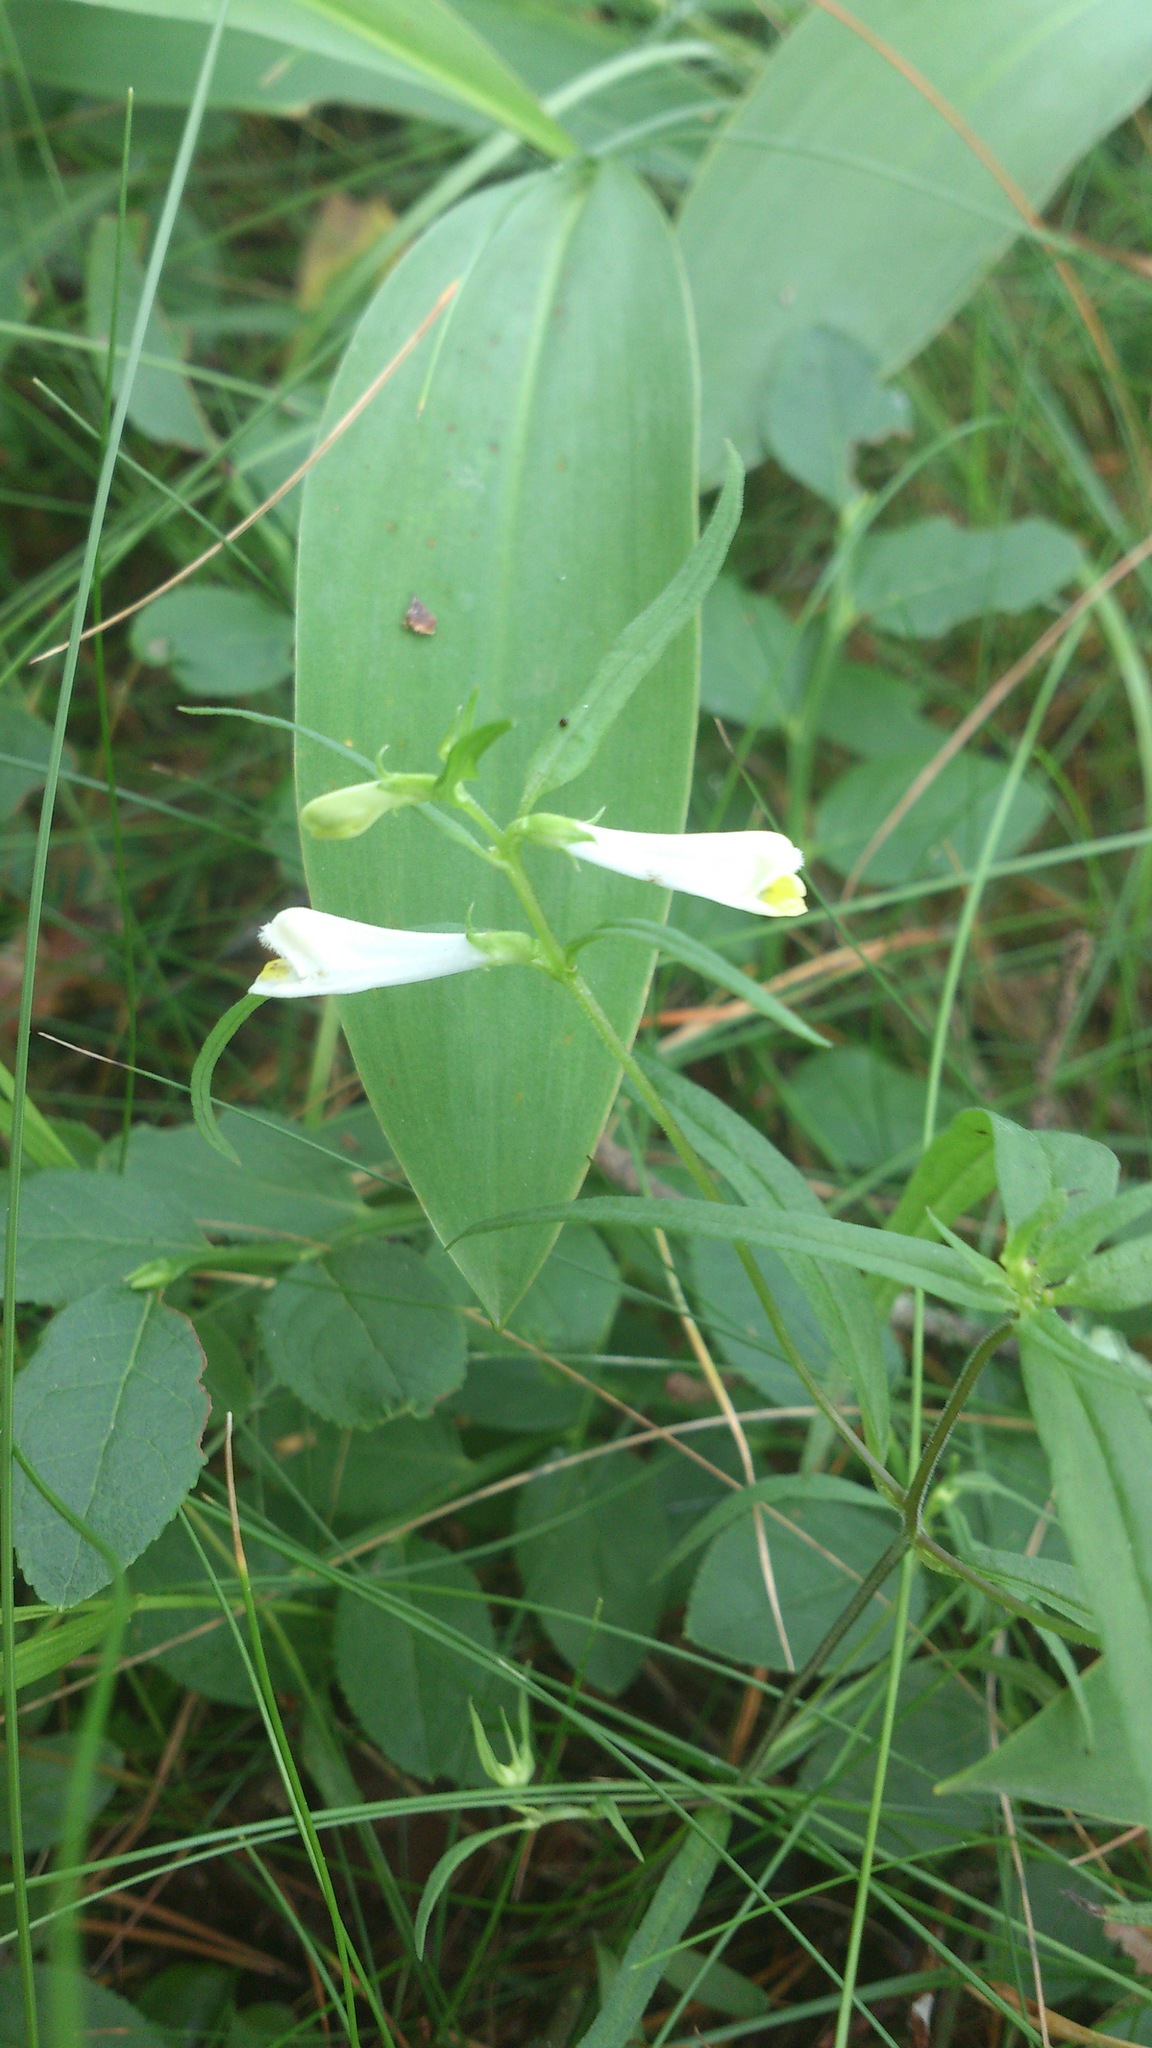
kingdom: Plantae
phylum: Tracheophyta
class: Magnoliopsida
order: Lamiales
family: Orobanchaceae
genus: Melampyrum
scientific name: Melampyrum pratense
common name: Common cow-wheat
